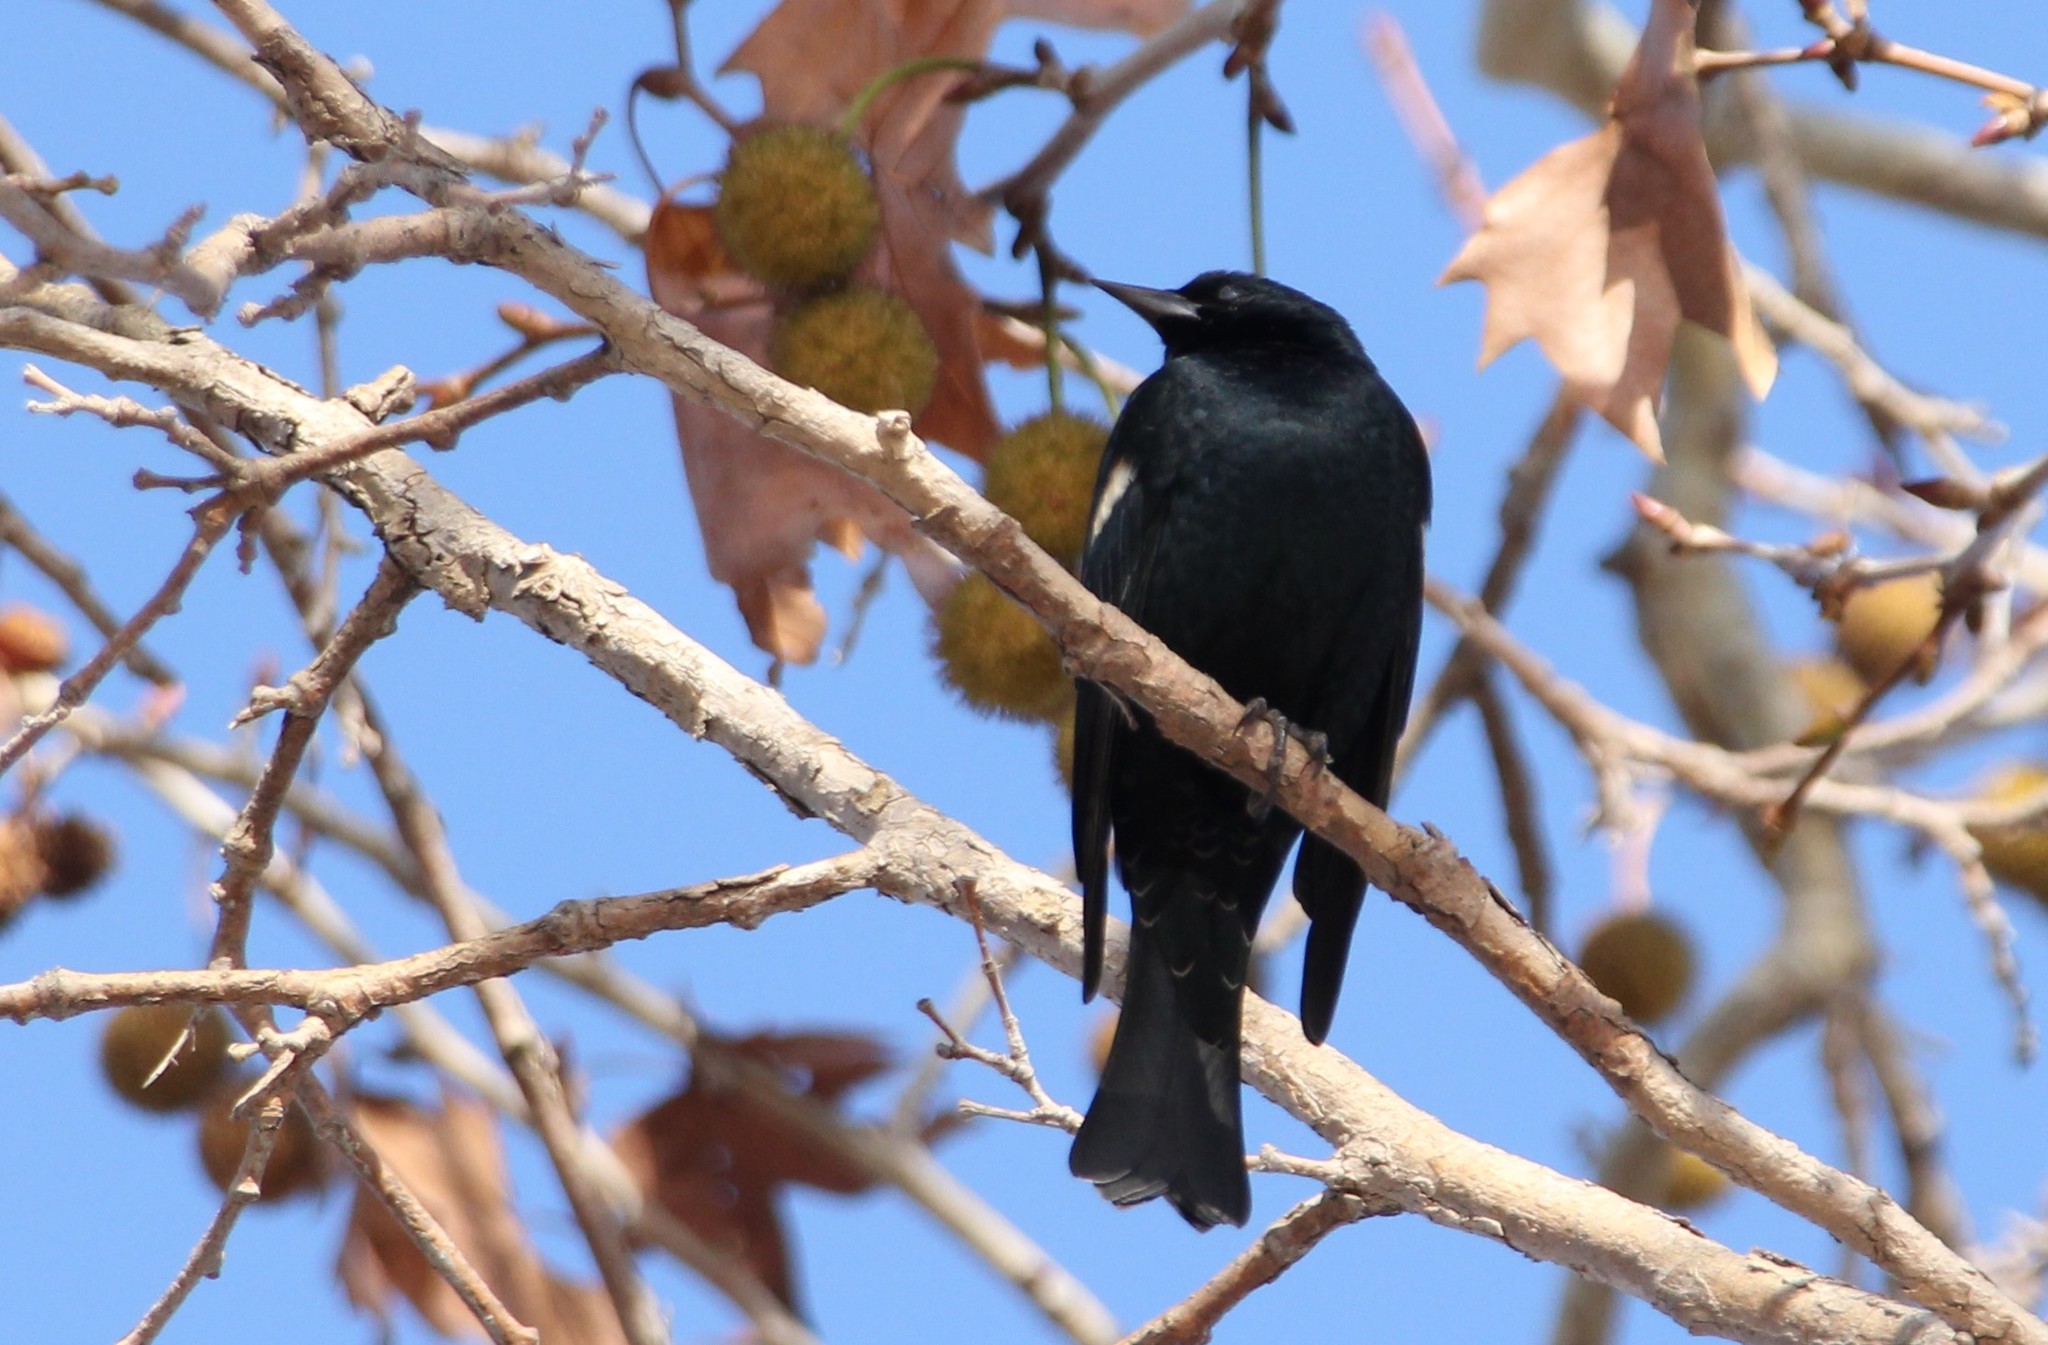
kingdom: Animalia
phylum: Chordata
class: Aves
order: Passeriformes
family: Icteridae
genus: Agelaius
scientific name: Agelaius tricolor
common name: Tricolored blackbird
